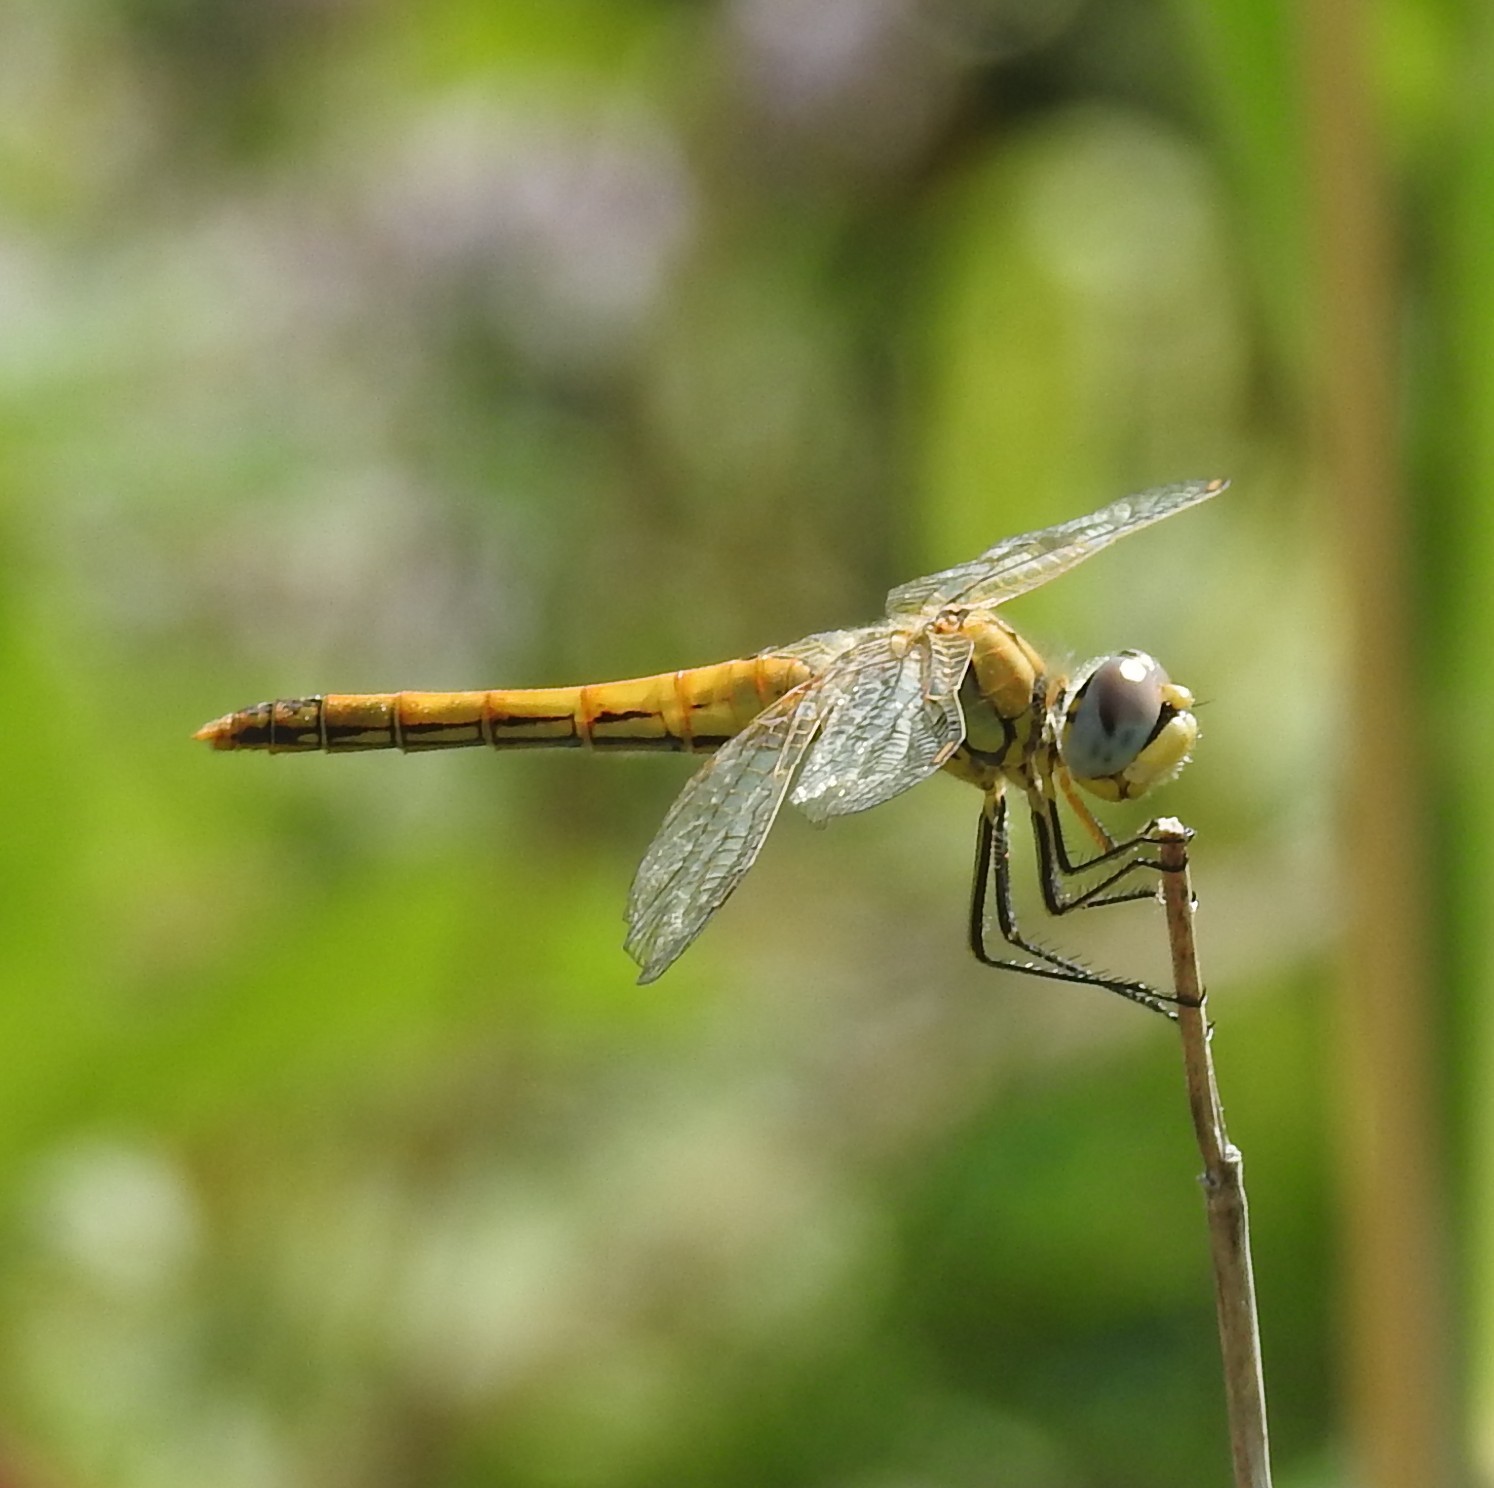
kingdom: Animalia
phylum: Arthropoda
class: Insecta
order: Odonata
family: Libellulidae
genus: Sympetrum
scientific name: Sympetrum fonscolombii
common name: Red-veined darter
